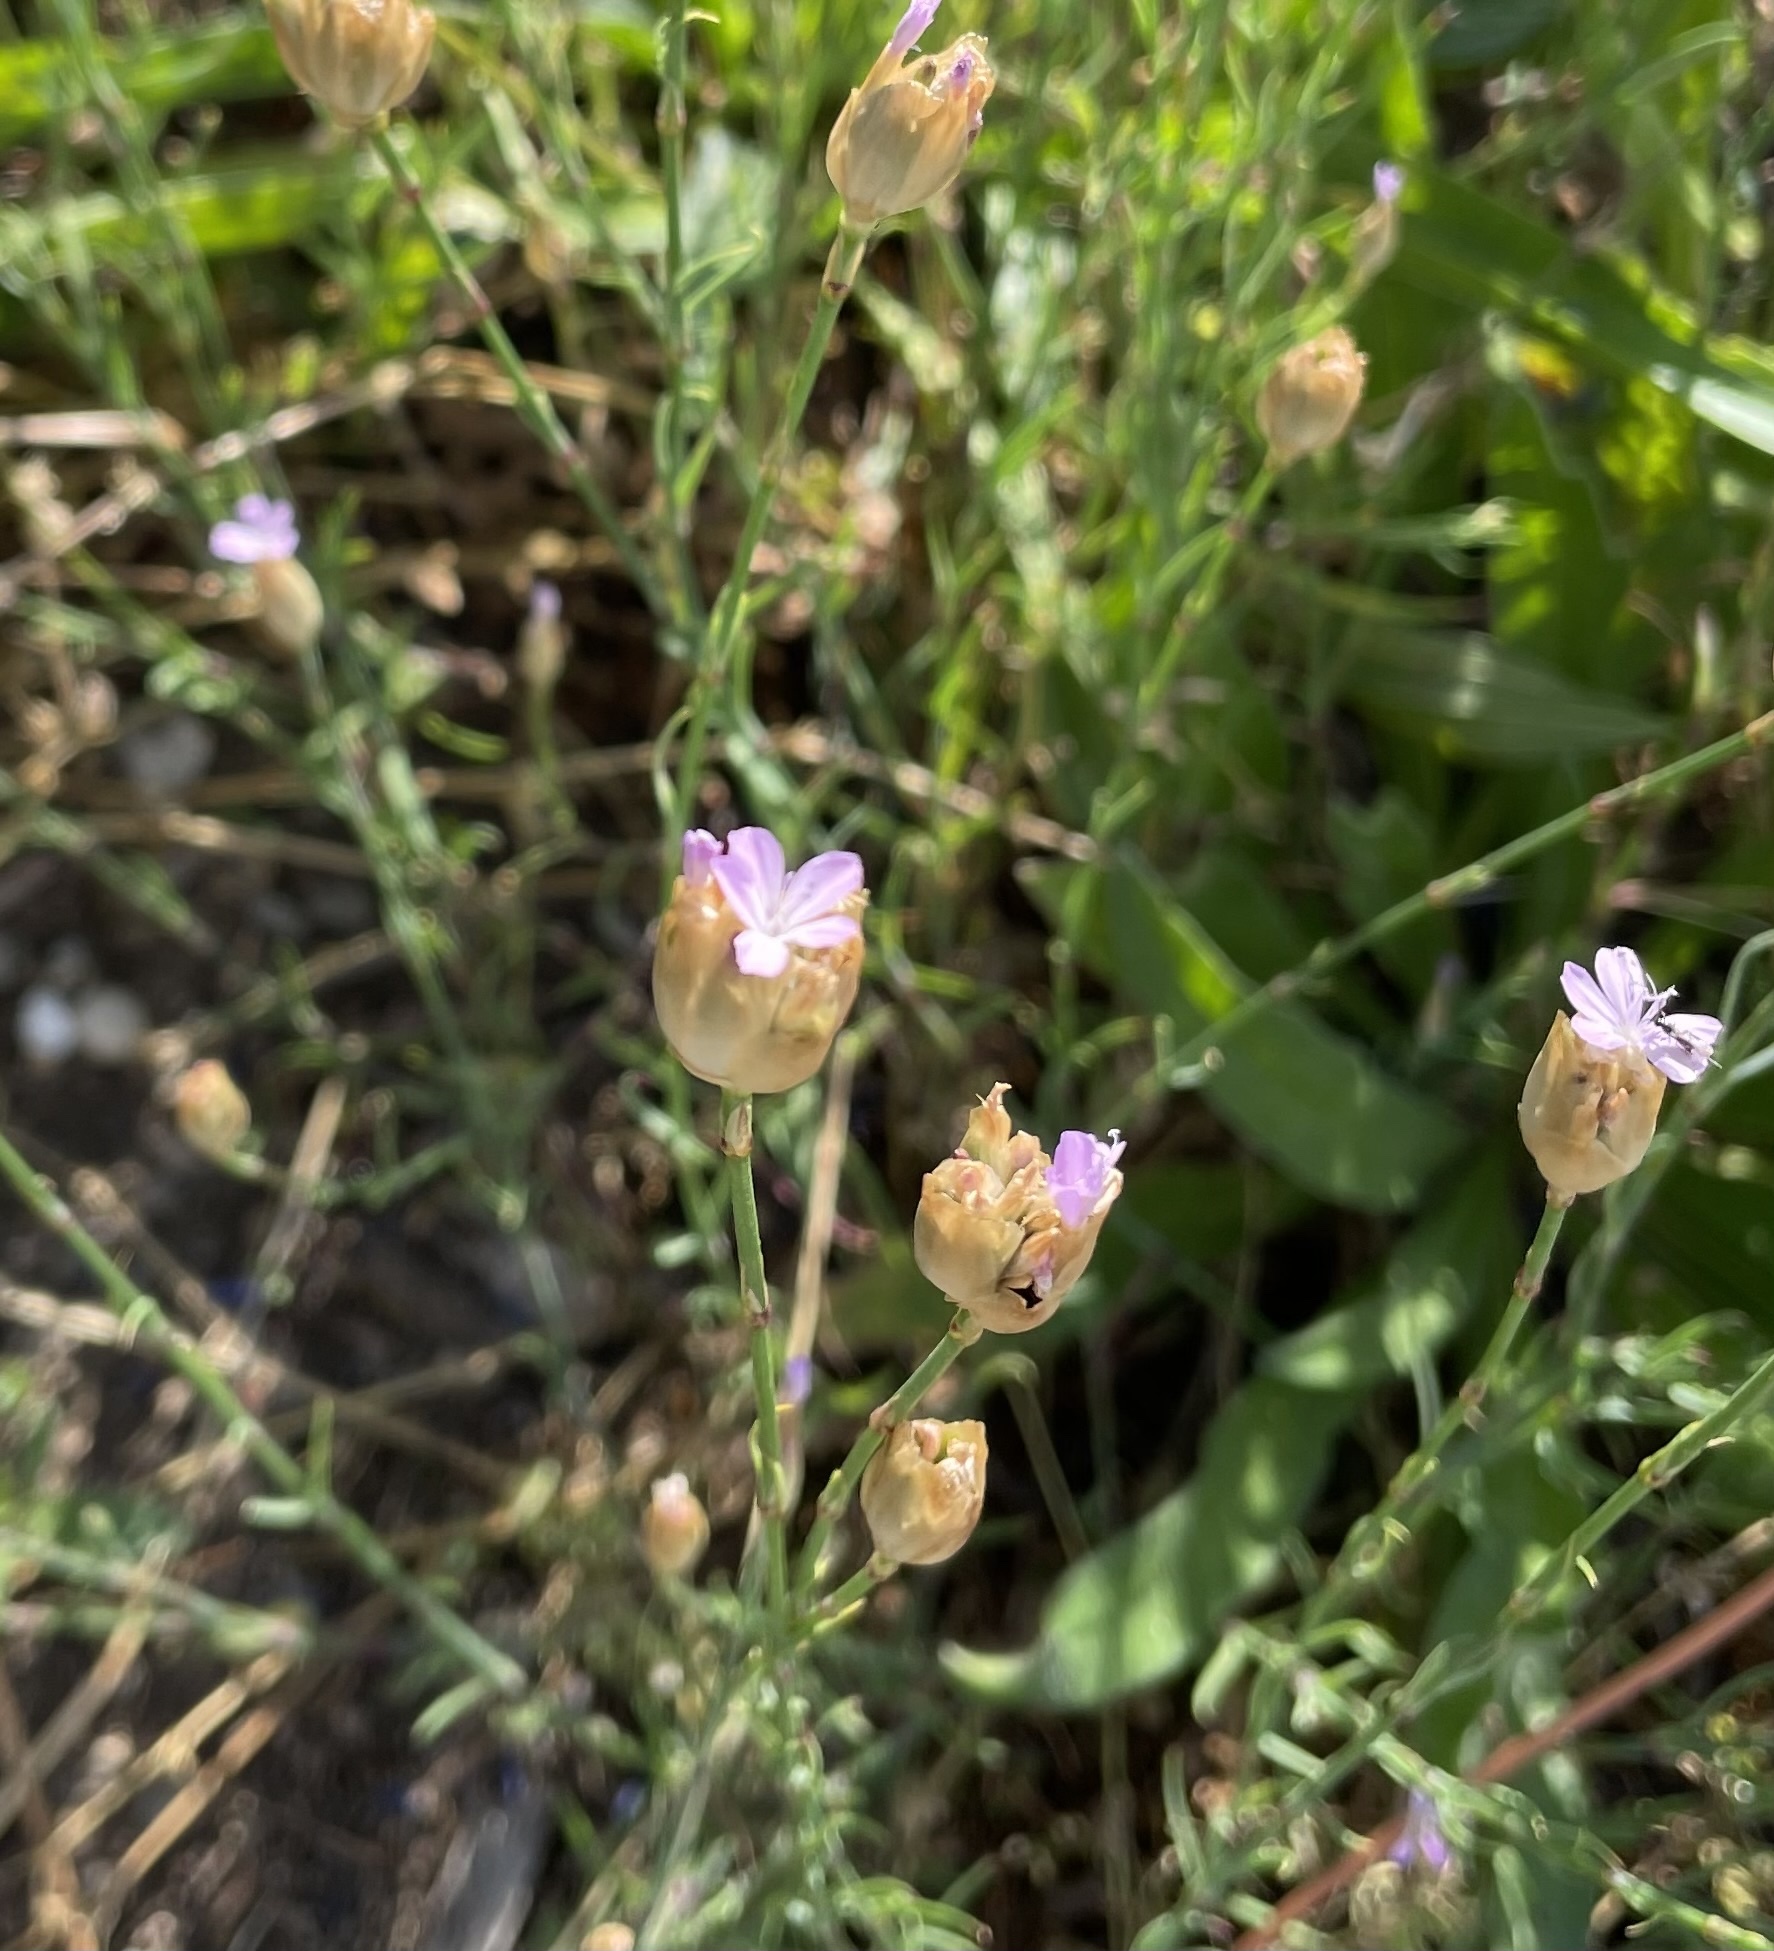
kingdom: Plantae
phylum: Tracheophyta
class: Magnoliopsida
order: Caryophyllales
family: Caryophyllaceae
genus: Petrorhagia
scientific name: Petrorhagia prolifera
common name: Proliferous pink
